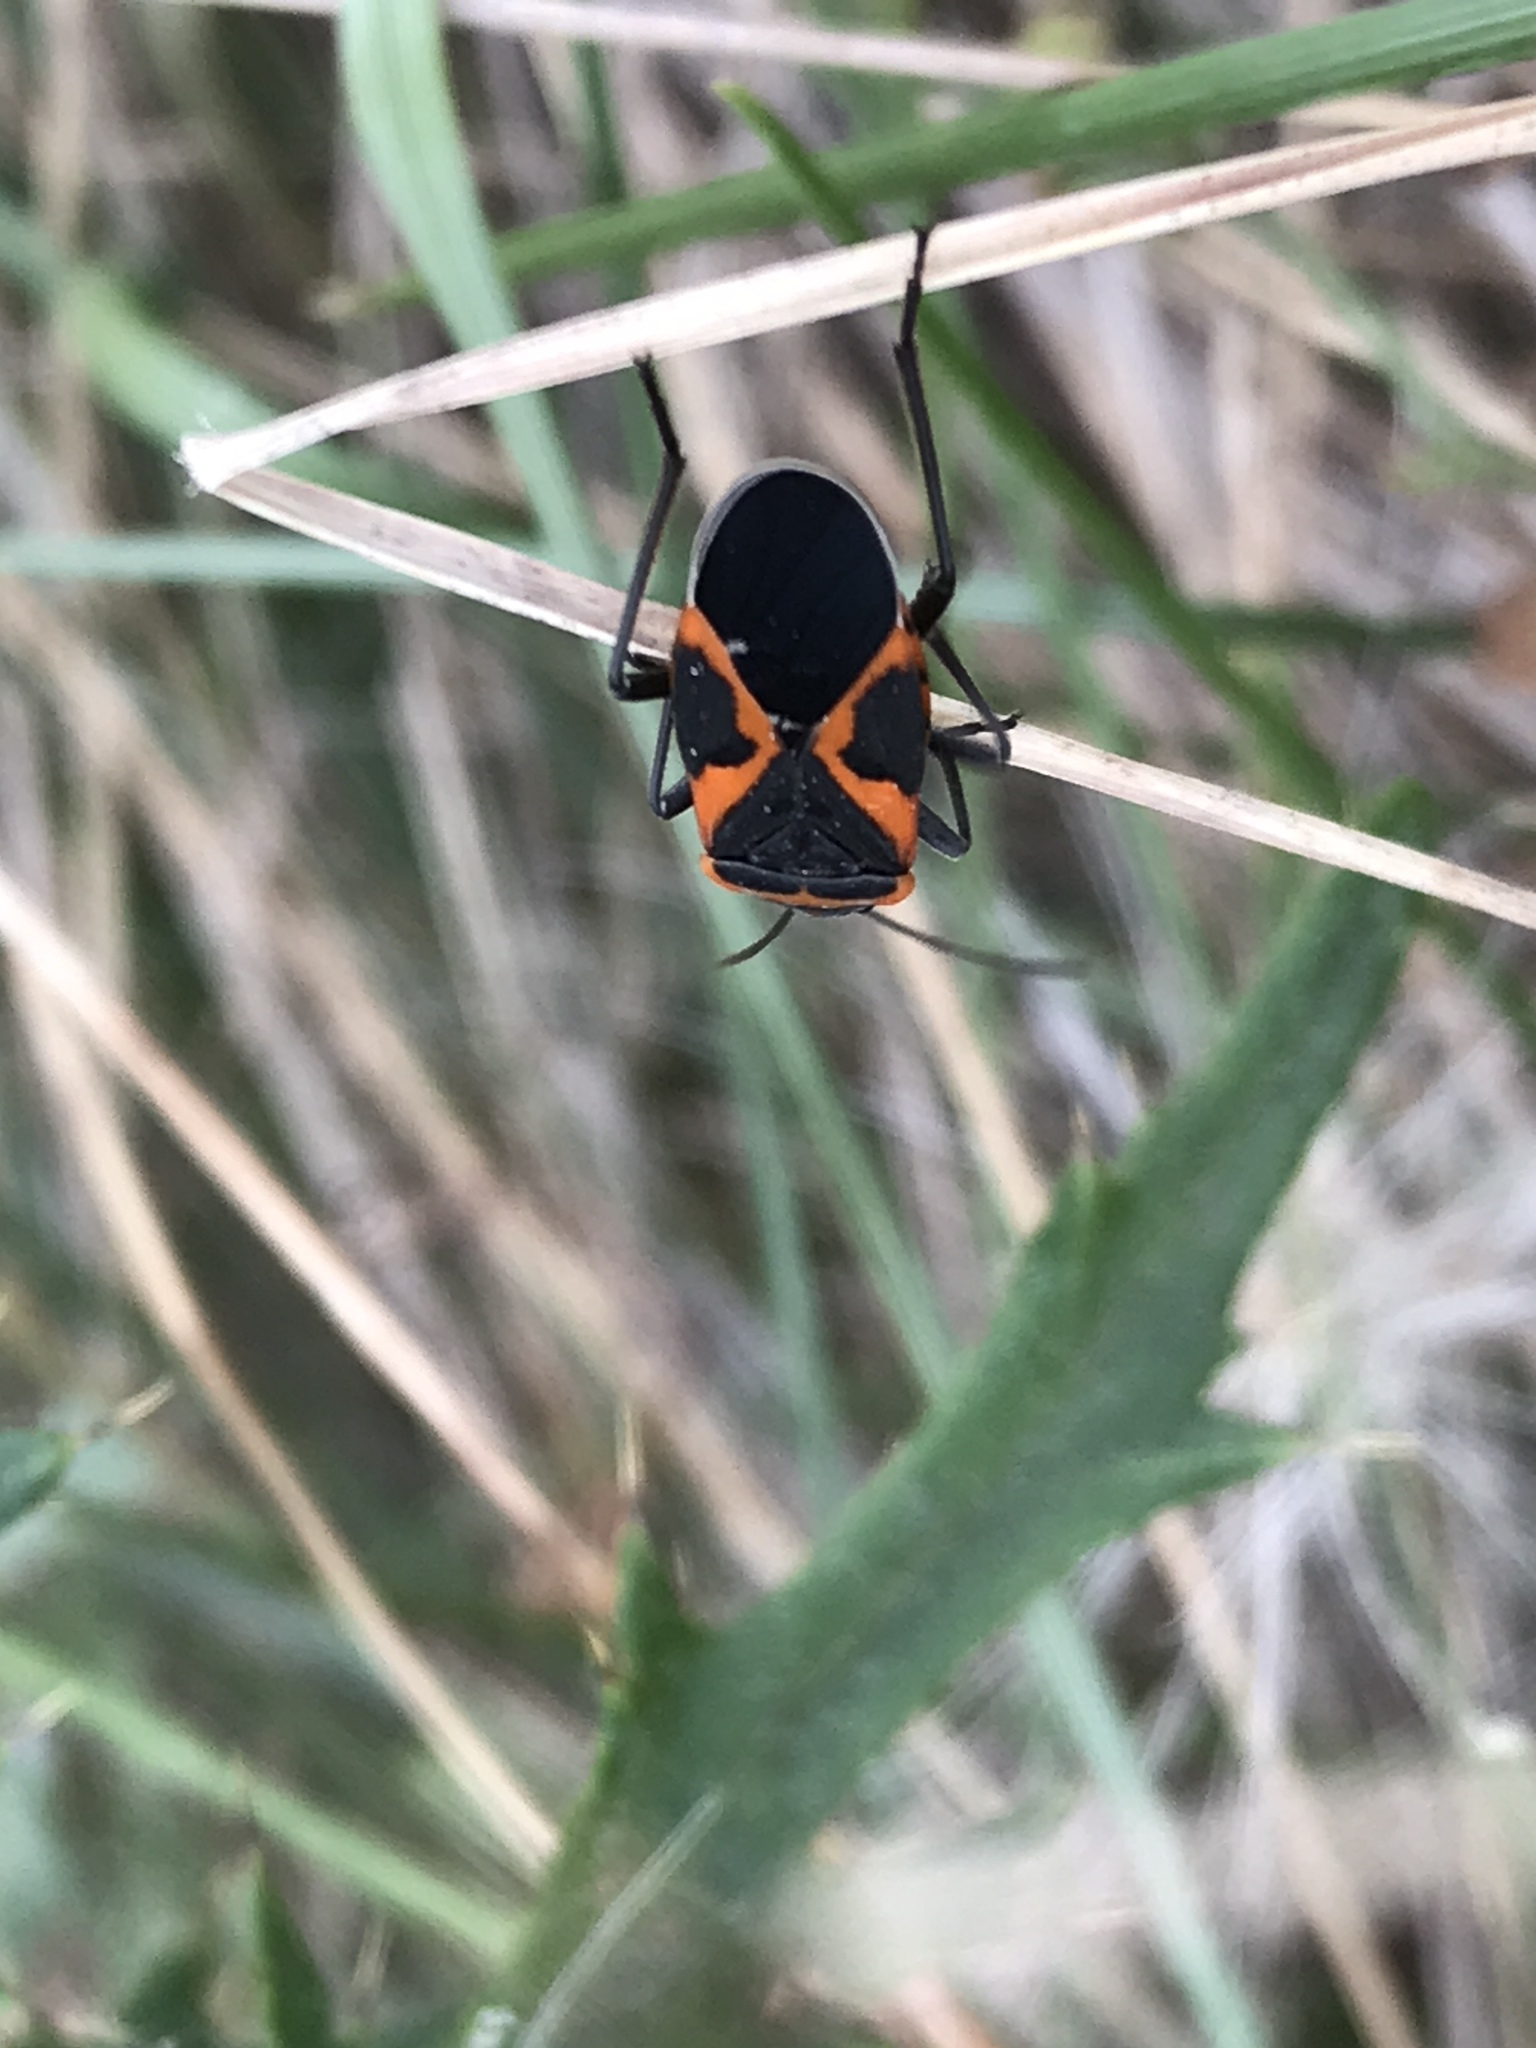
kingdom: Animalia
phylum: Arthropoda
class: Insecta
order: Hemiptera
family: Lygaeidae
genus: Lygaeus
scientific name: Lygaeus kalmii
